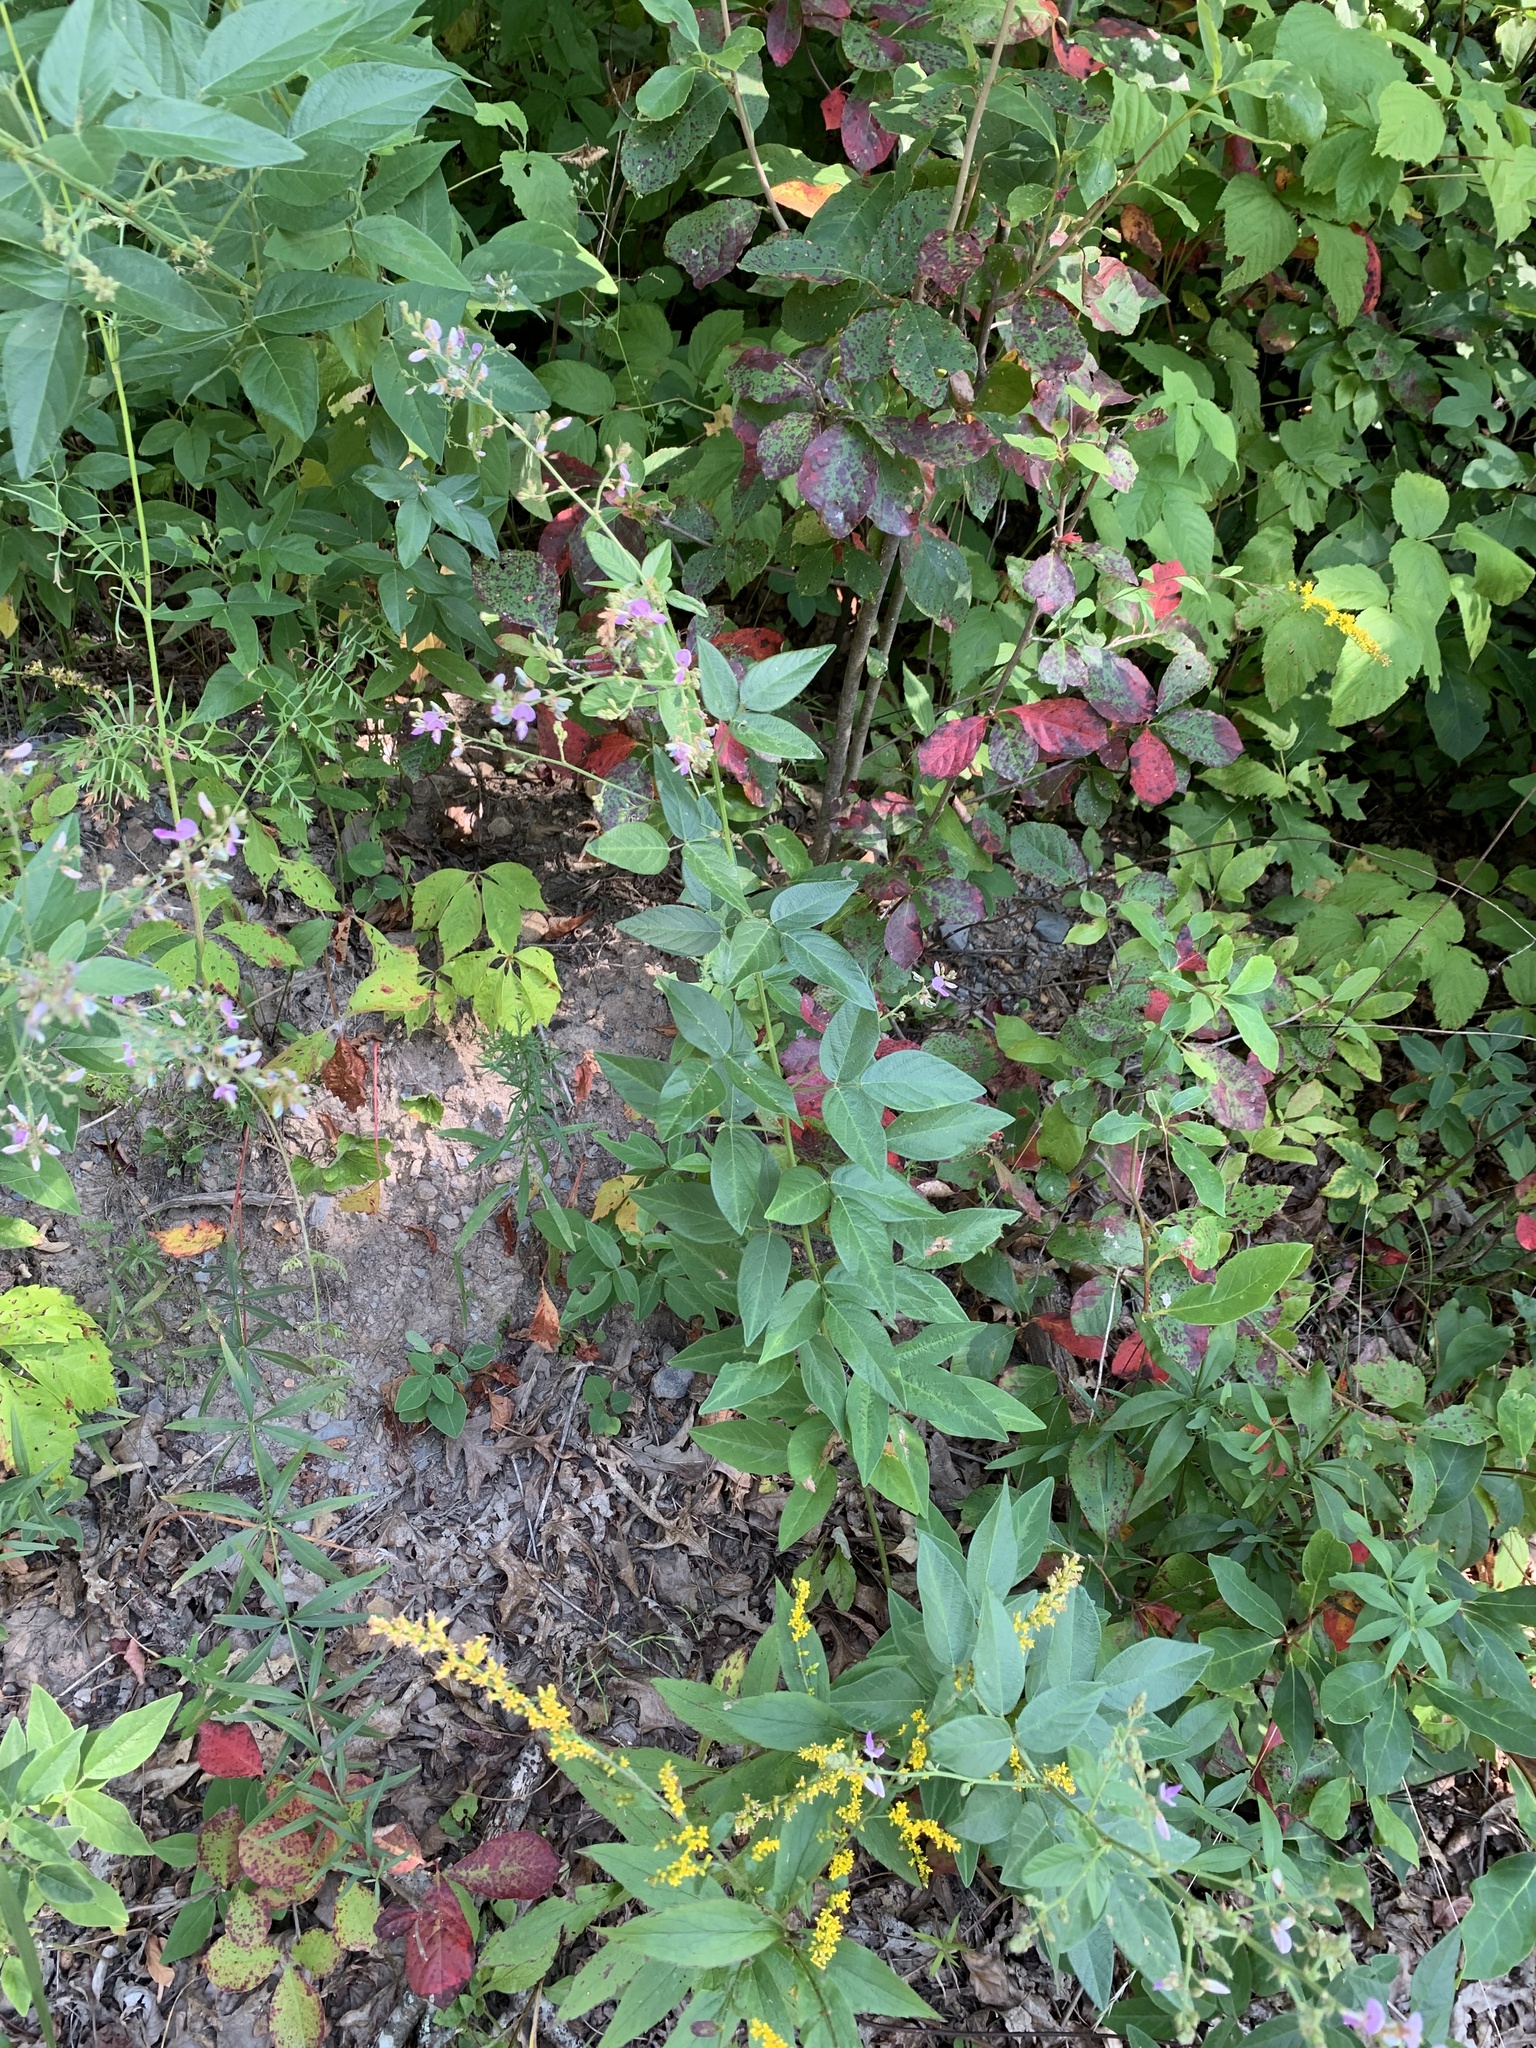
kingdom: Plantae
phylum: Tracheophyta
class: Magnoliopsida
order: Fabales
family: Fabaceae
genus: Desmodium
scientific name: Desmodium glabellum
